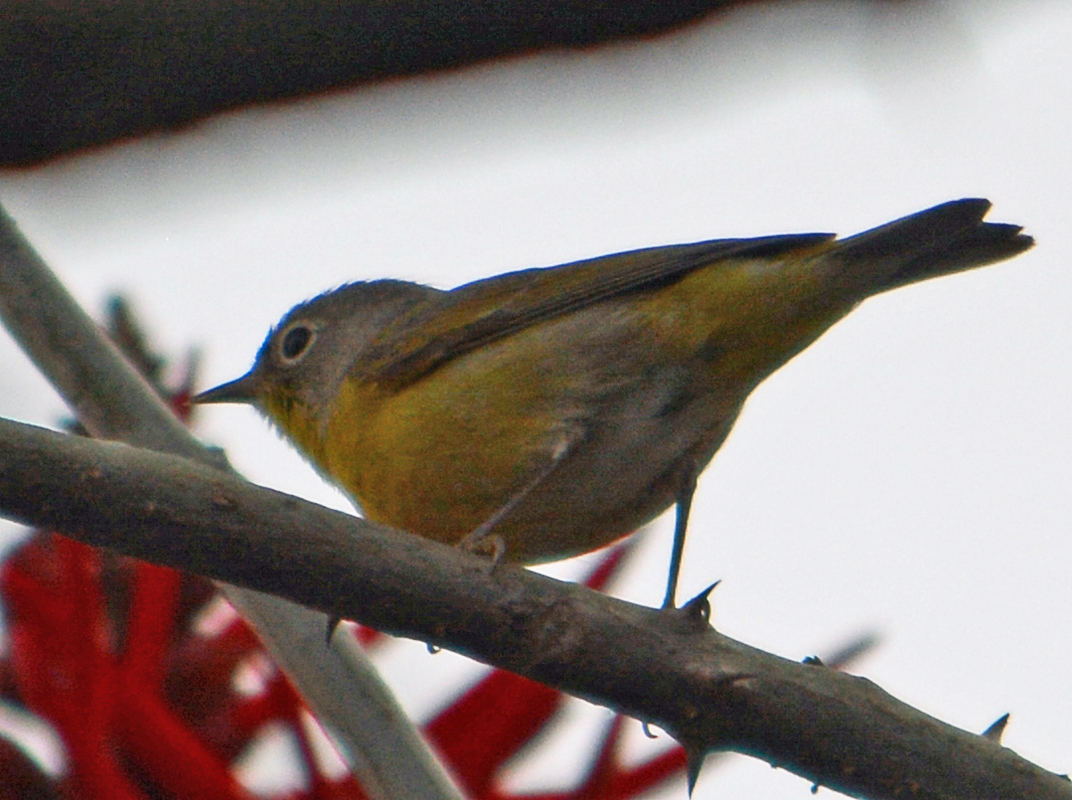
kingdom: Animalia
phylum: Chordata
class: Aves
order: Passeriformes
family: Parulidae
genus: Leiothlypis
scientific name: Leiothlypis ruficapilla
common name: Nashville warbler
